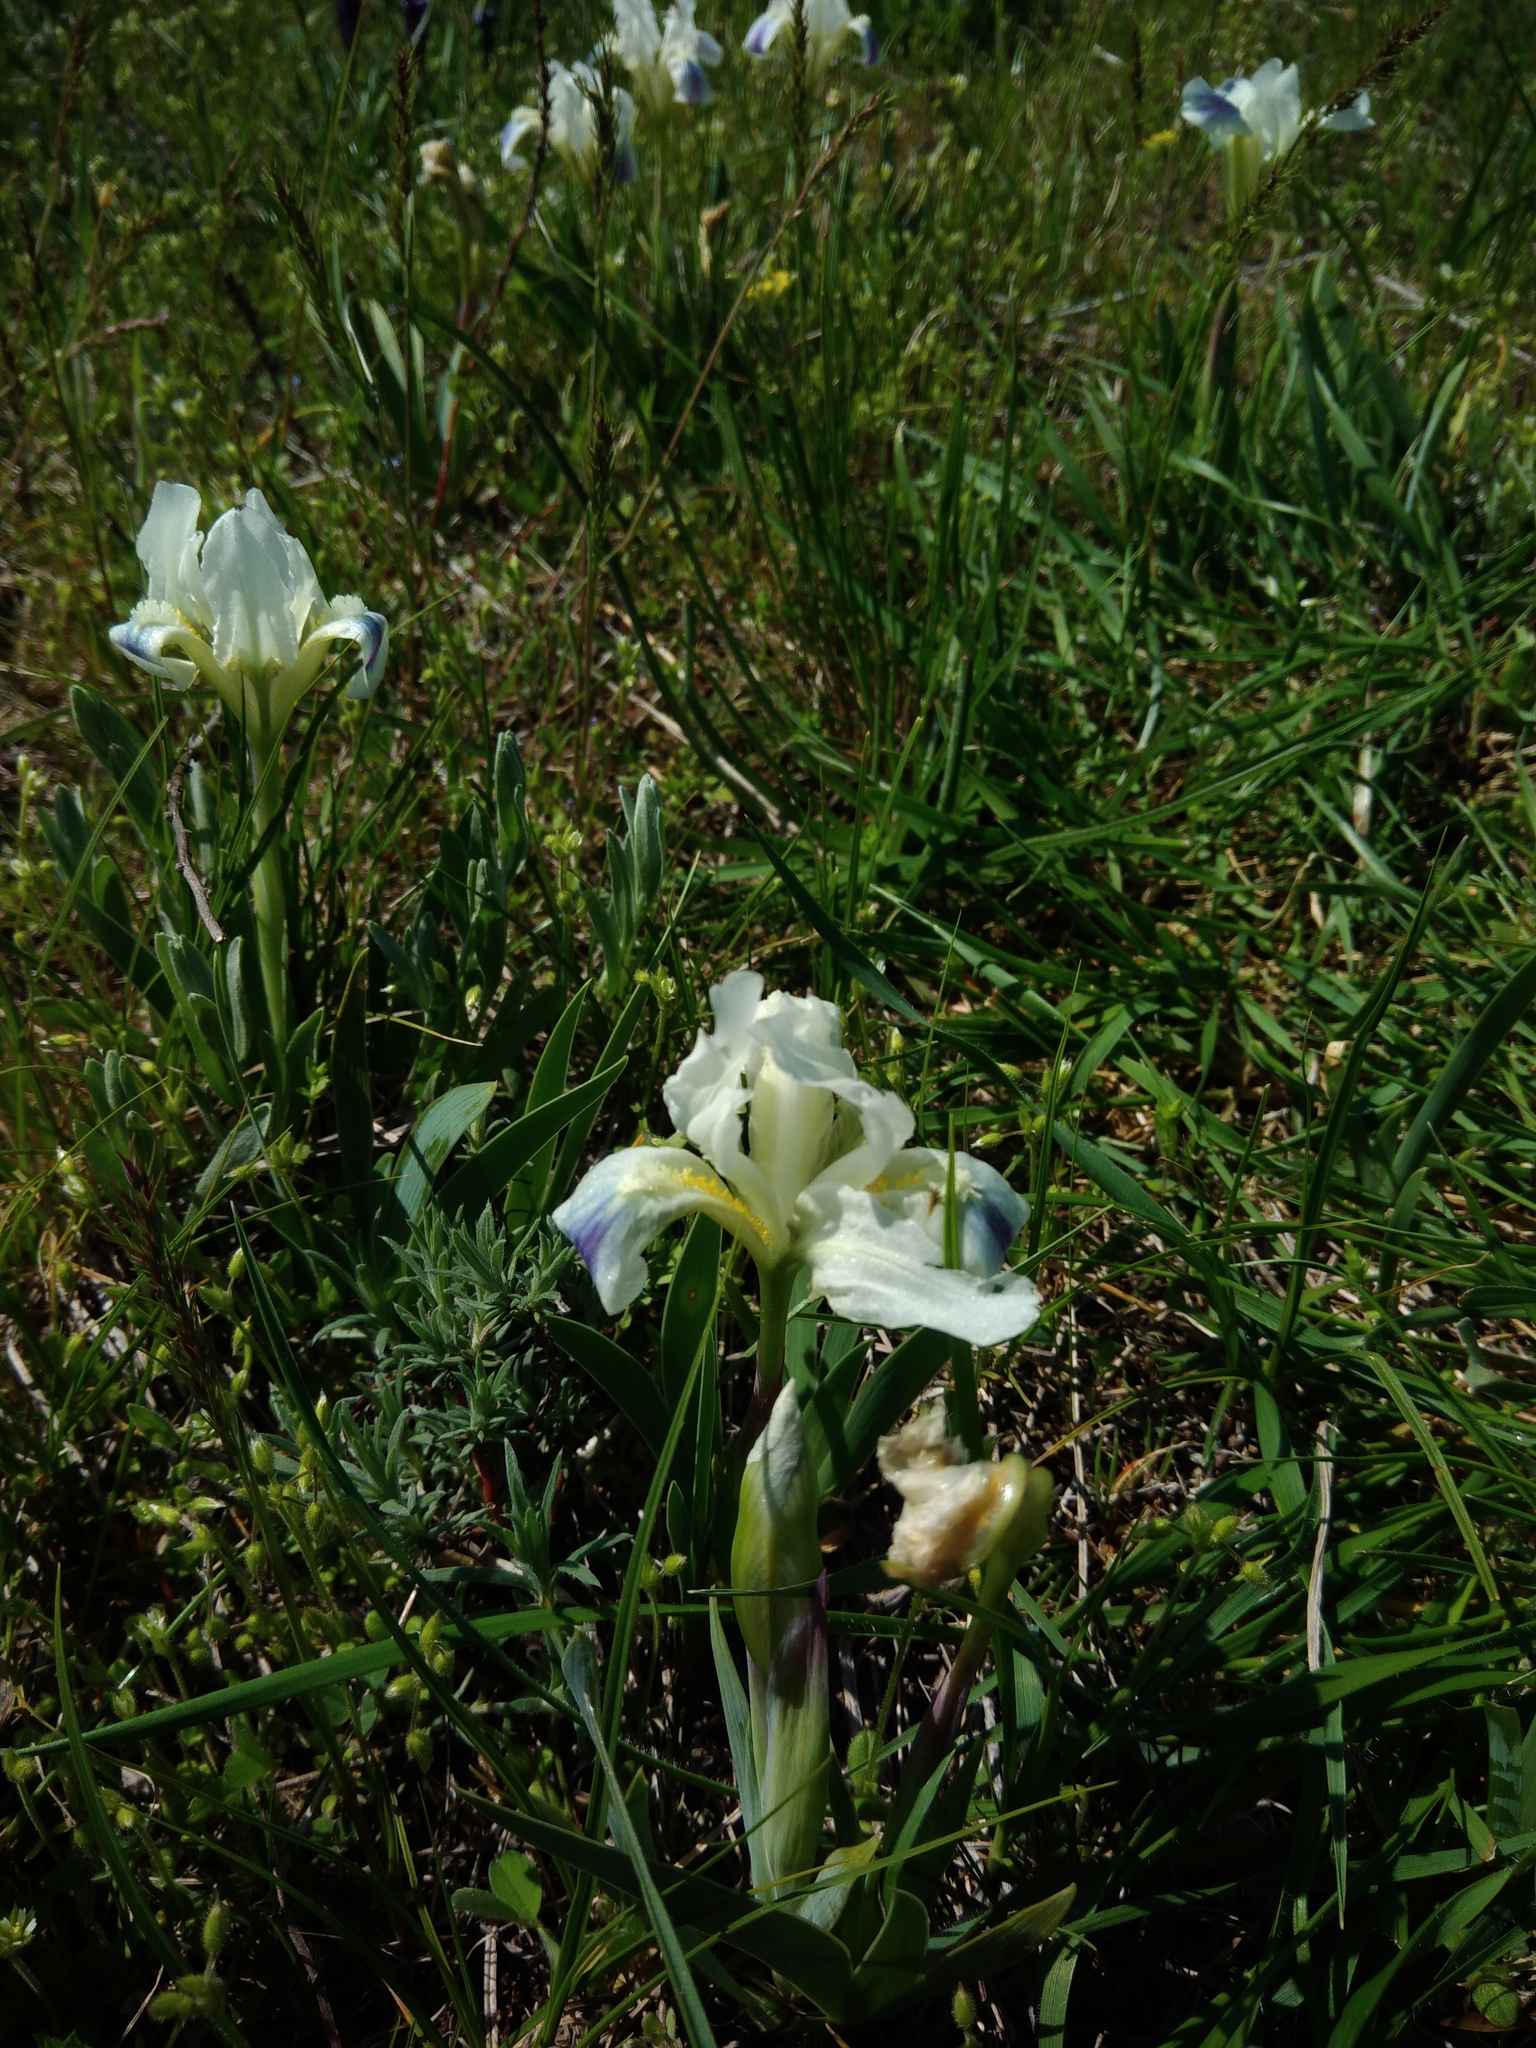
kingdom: Plantae
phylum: Tracheophyta
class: Liliopsida
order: Asparagales
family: Iridaceae
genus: Iris
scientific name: Iris pumila
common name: Dwarf iris
